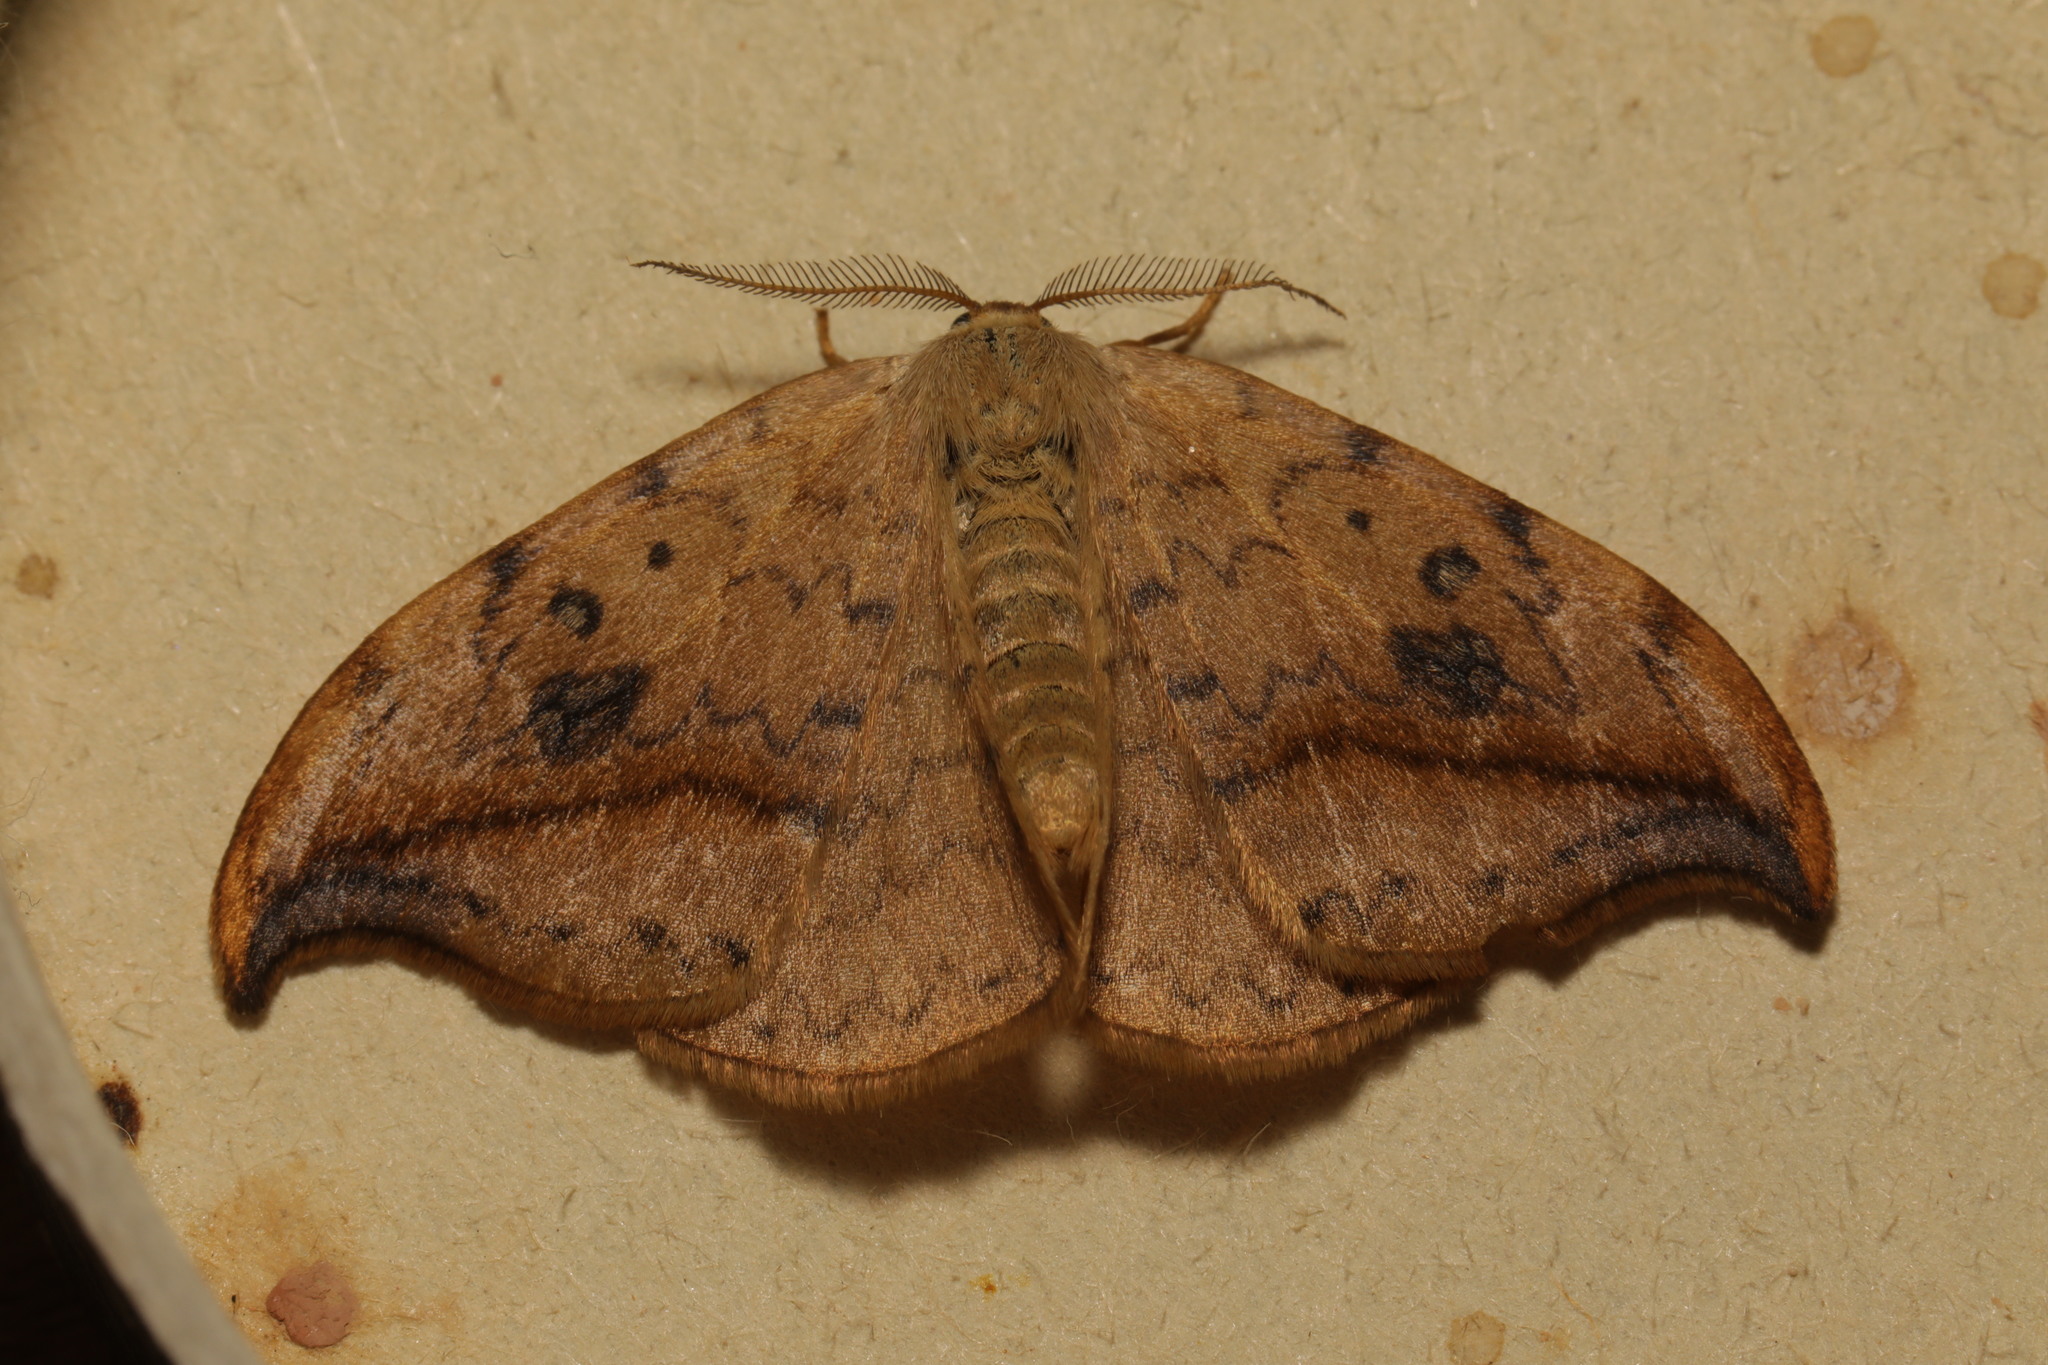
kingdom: Animalia
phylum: Arthropoda
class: Insecta
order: Lepidoptera
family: Drepanidae
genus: Drepana
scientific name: Drepana falcataria
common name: Pebble hook-tip
